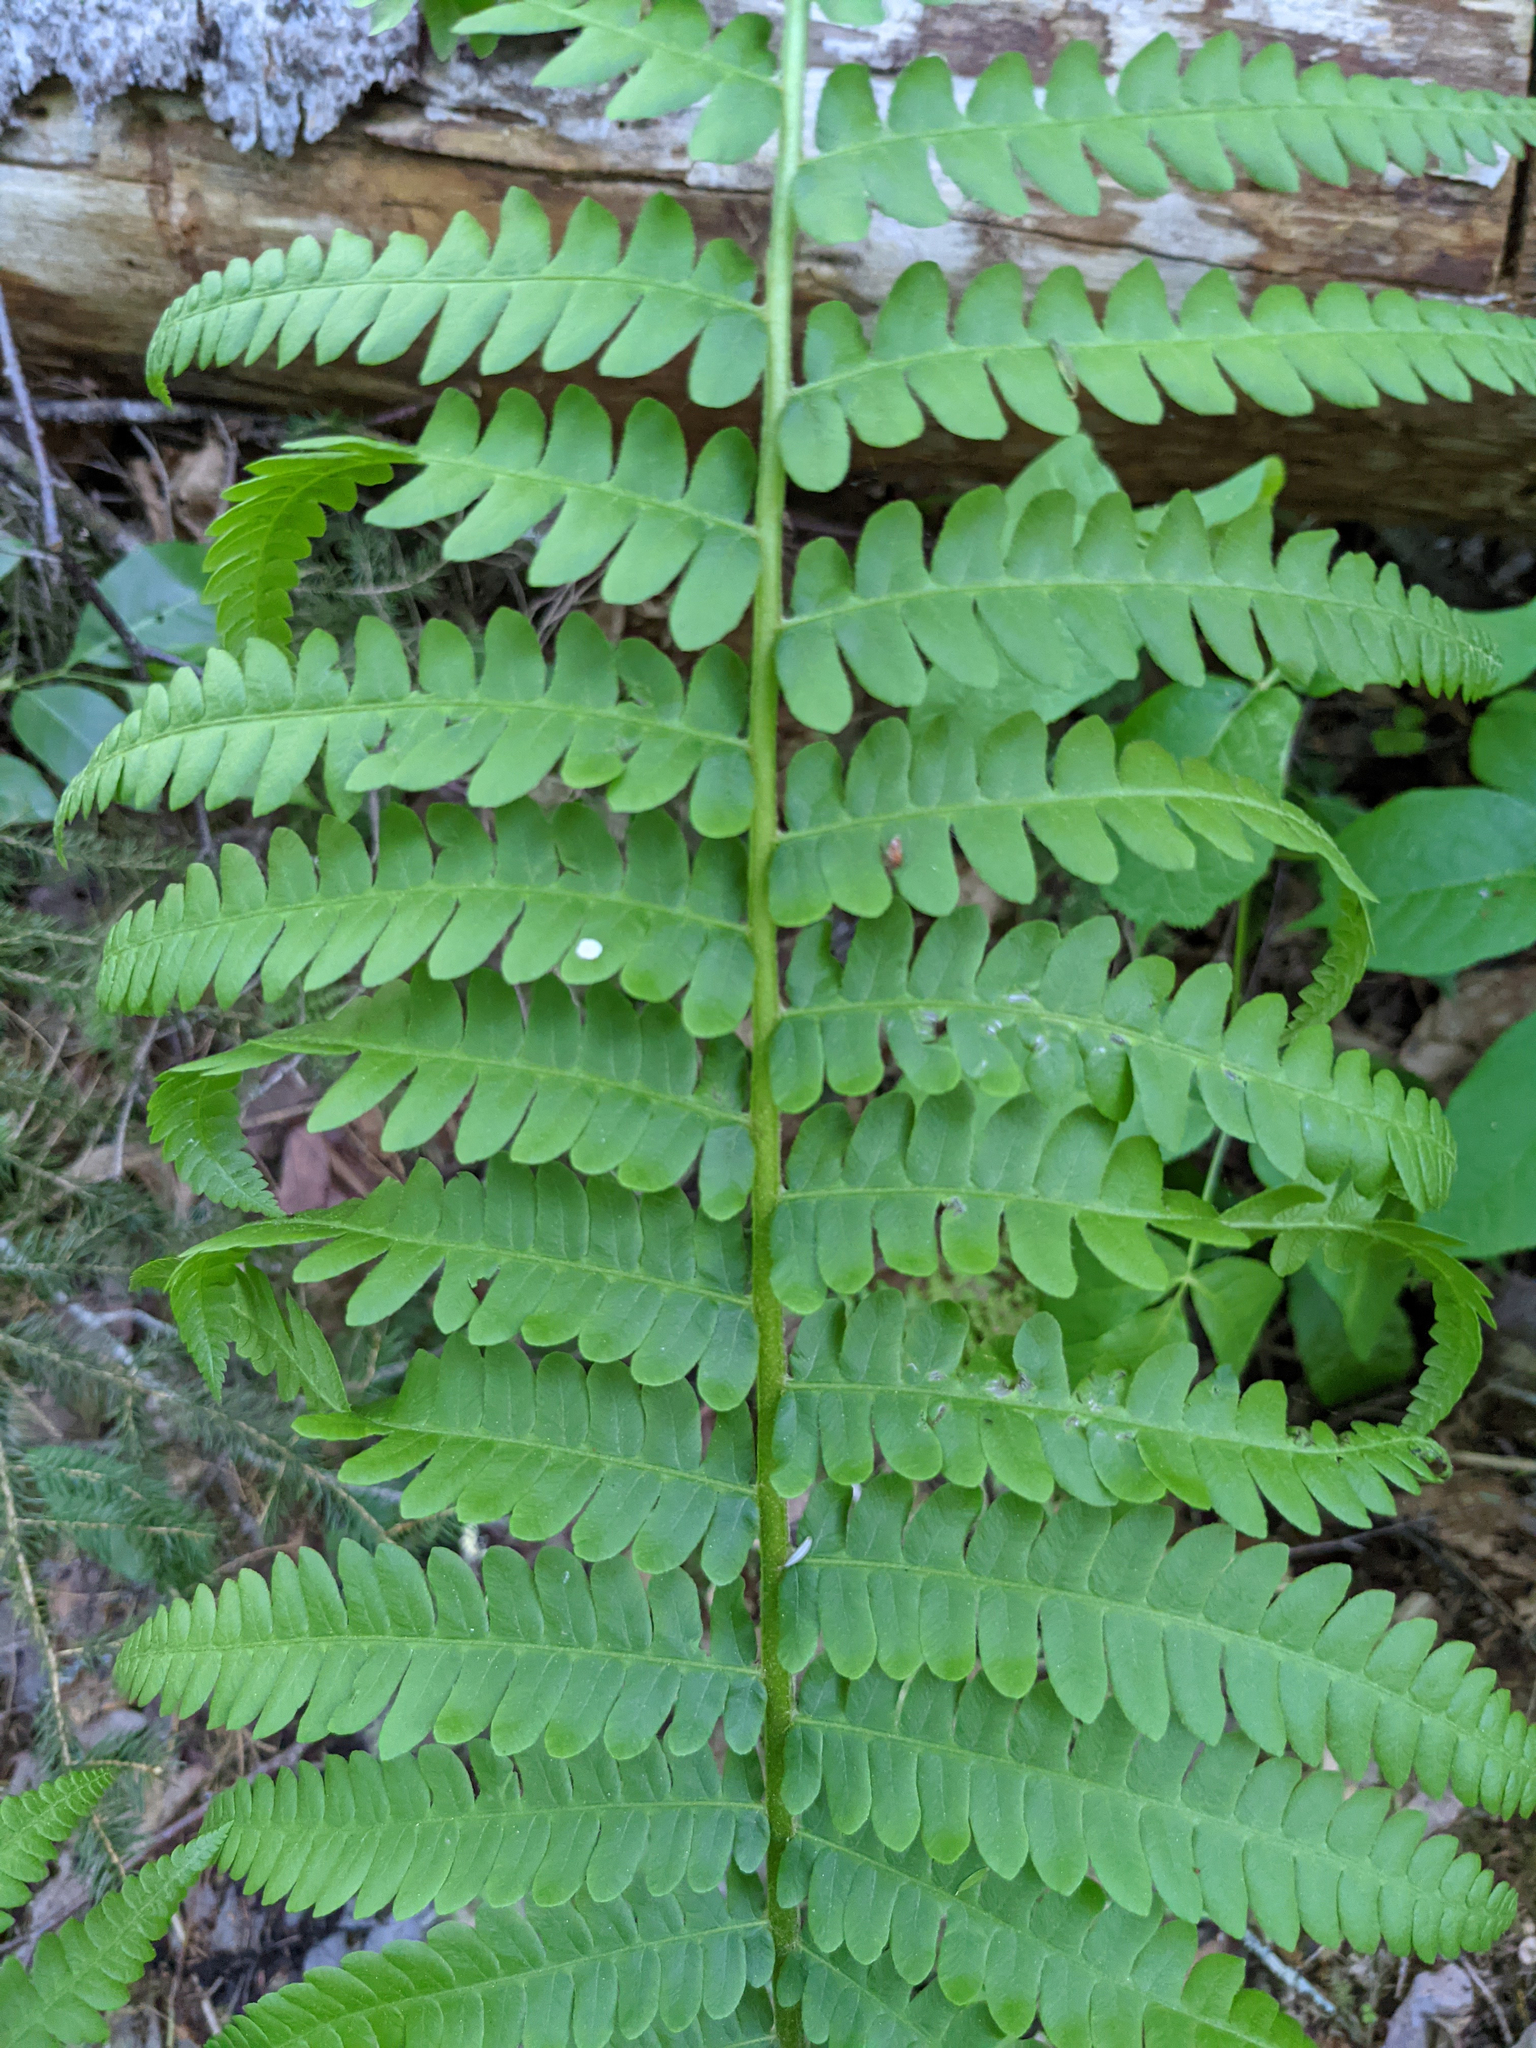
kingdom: Plantae
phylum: Tracheophyta
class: Polypodiopsida
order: Osmundales
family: Osmundaceae
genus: Osmundastrum
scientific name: Osmundastrum cinnamomeum
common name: Cinnamon fern
